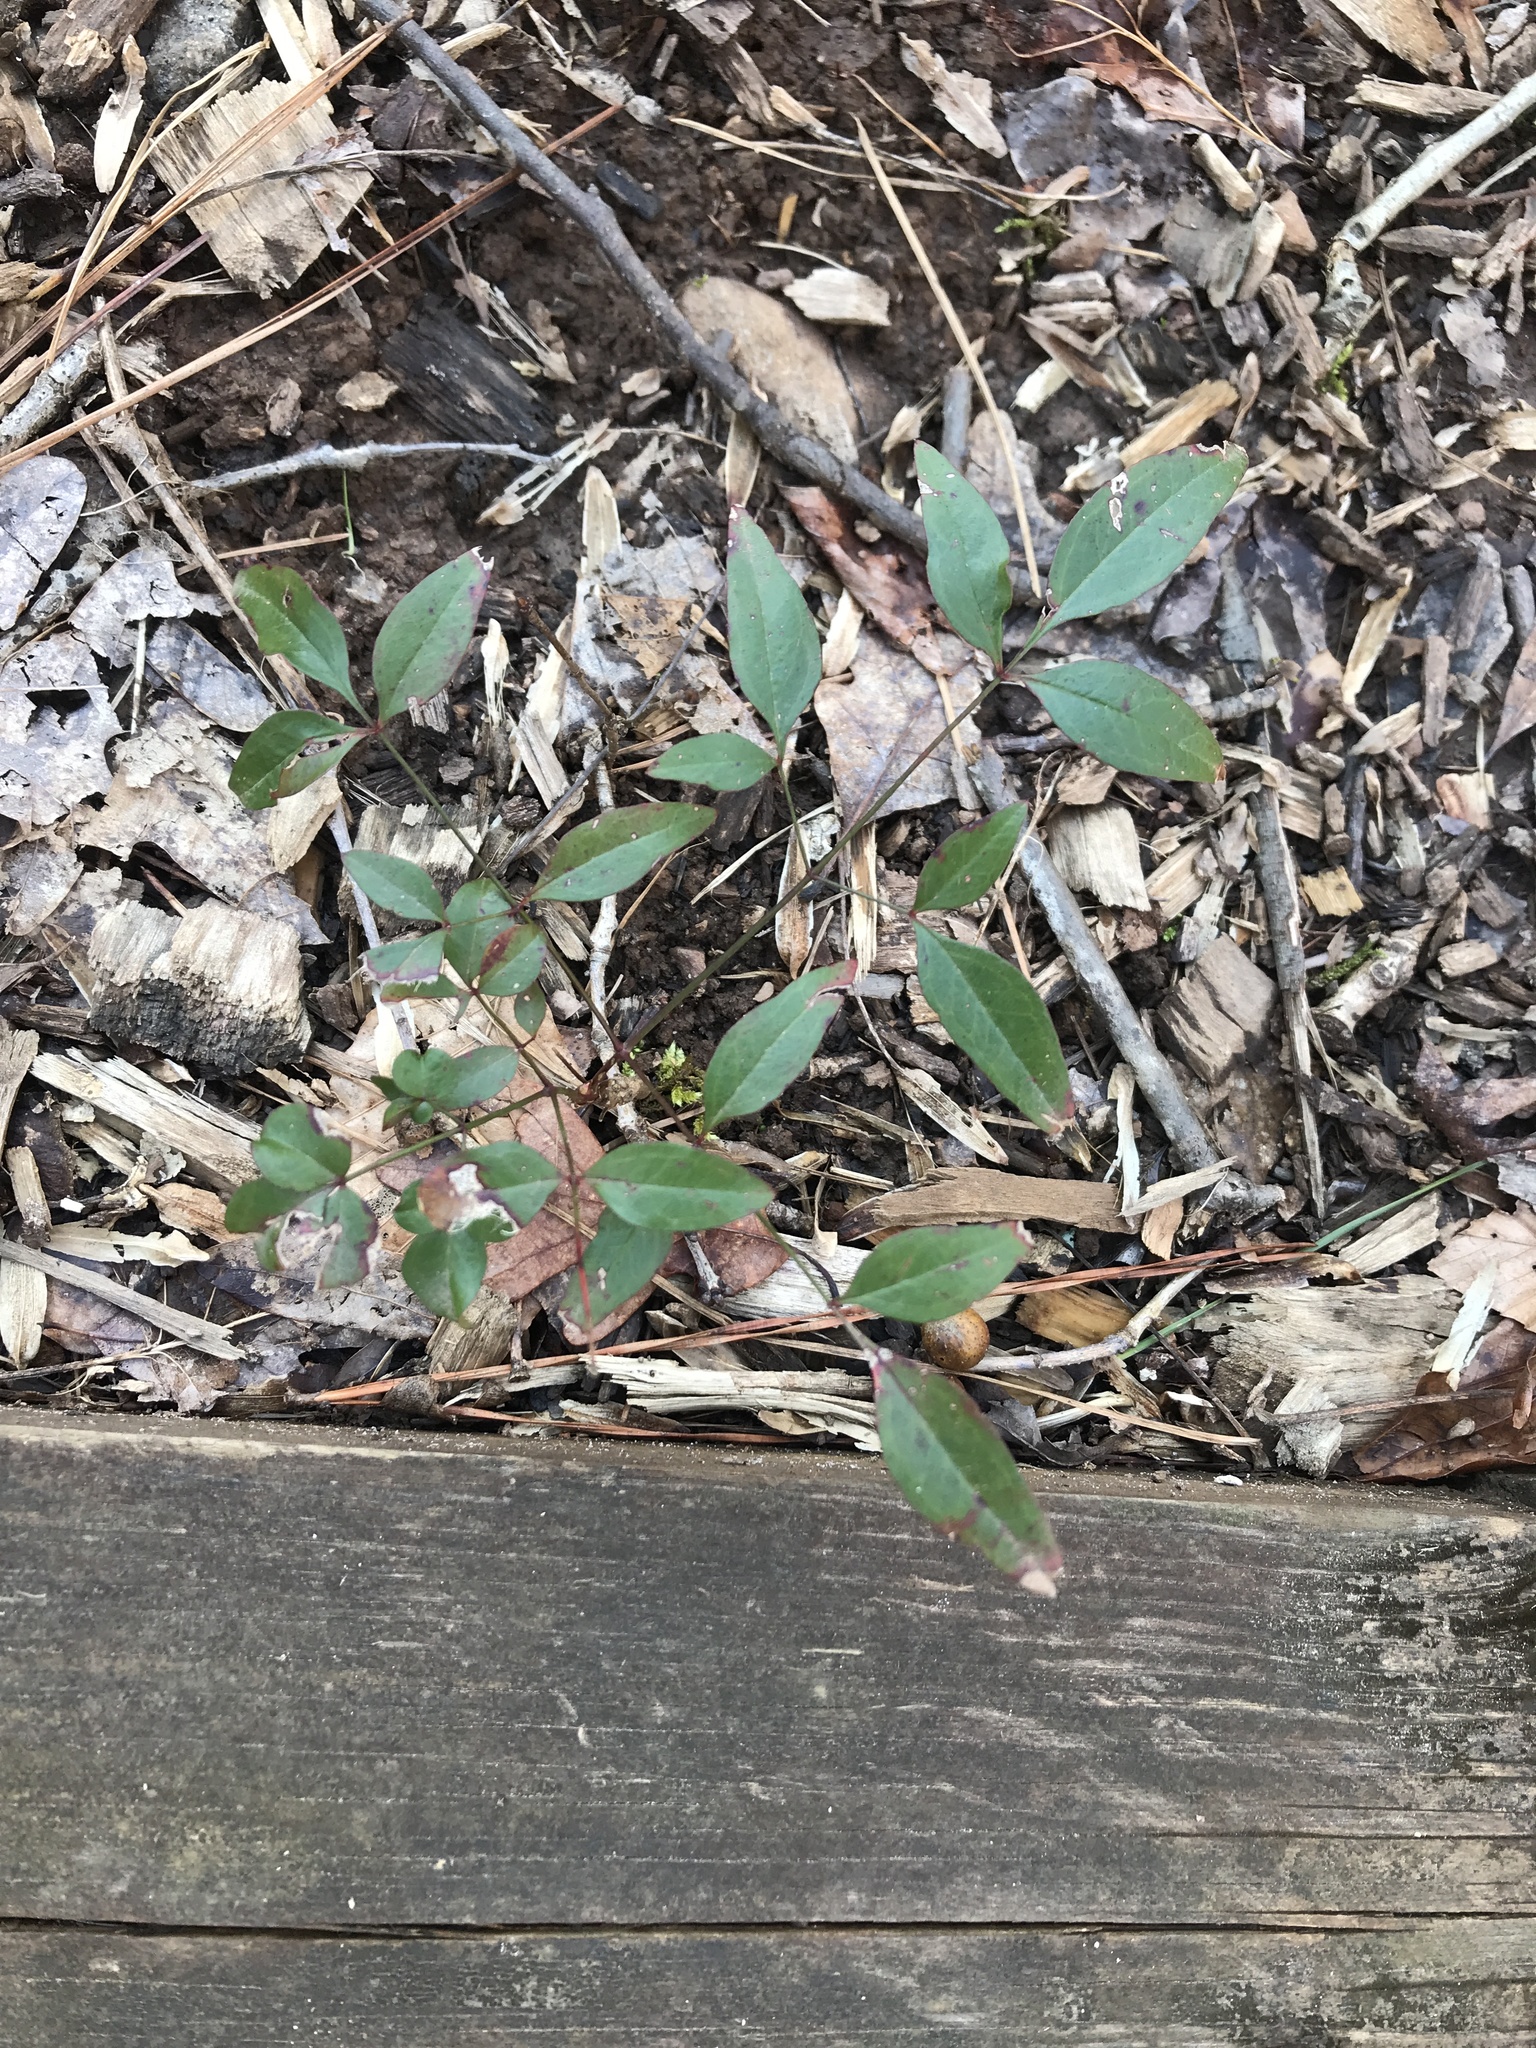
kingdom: Plantae
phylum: Tracheophyta
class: Magnoliopsida
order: Ranunculales
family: Berberidaceae
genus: Nandina
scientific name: Nandina domestica
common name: Sacred bamboo
